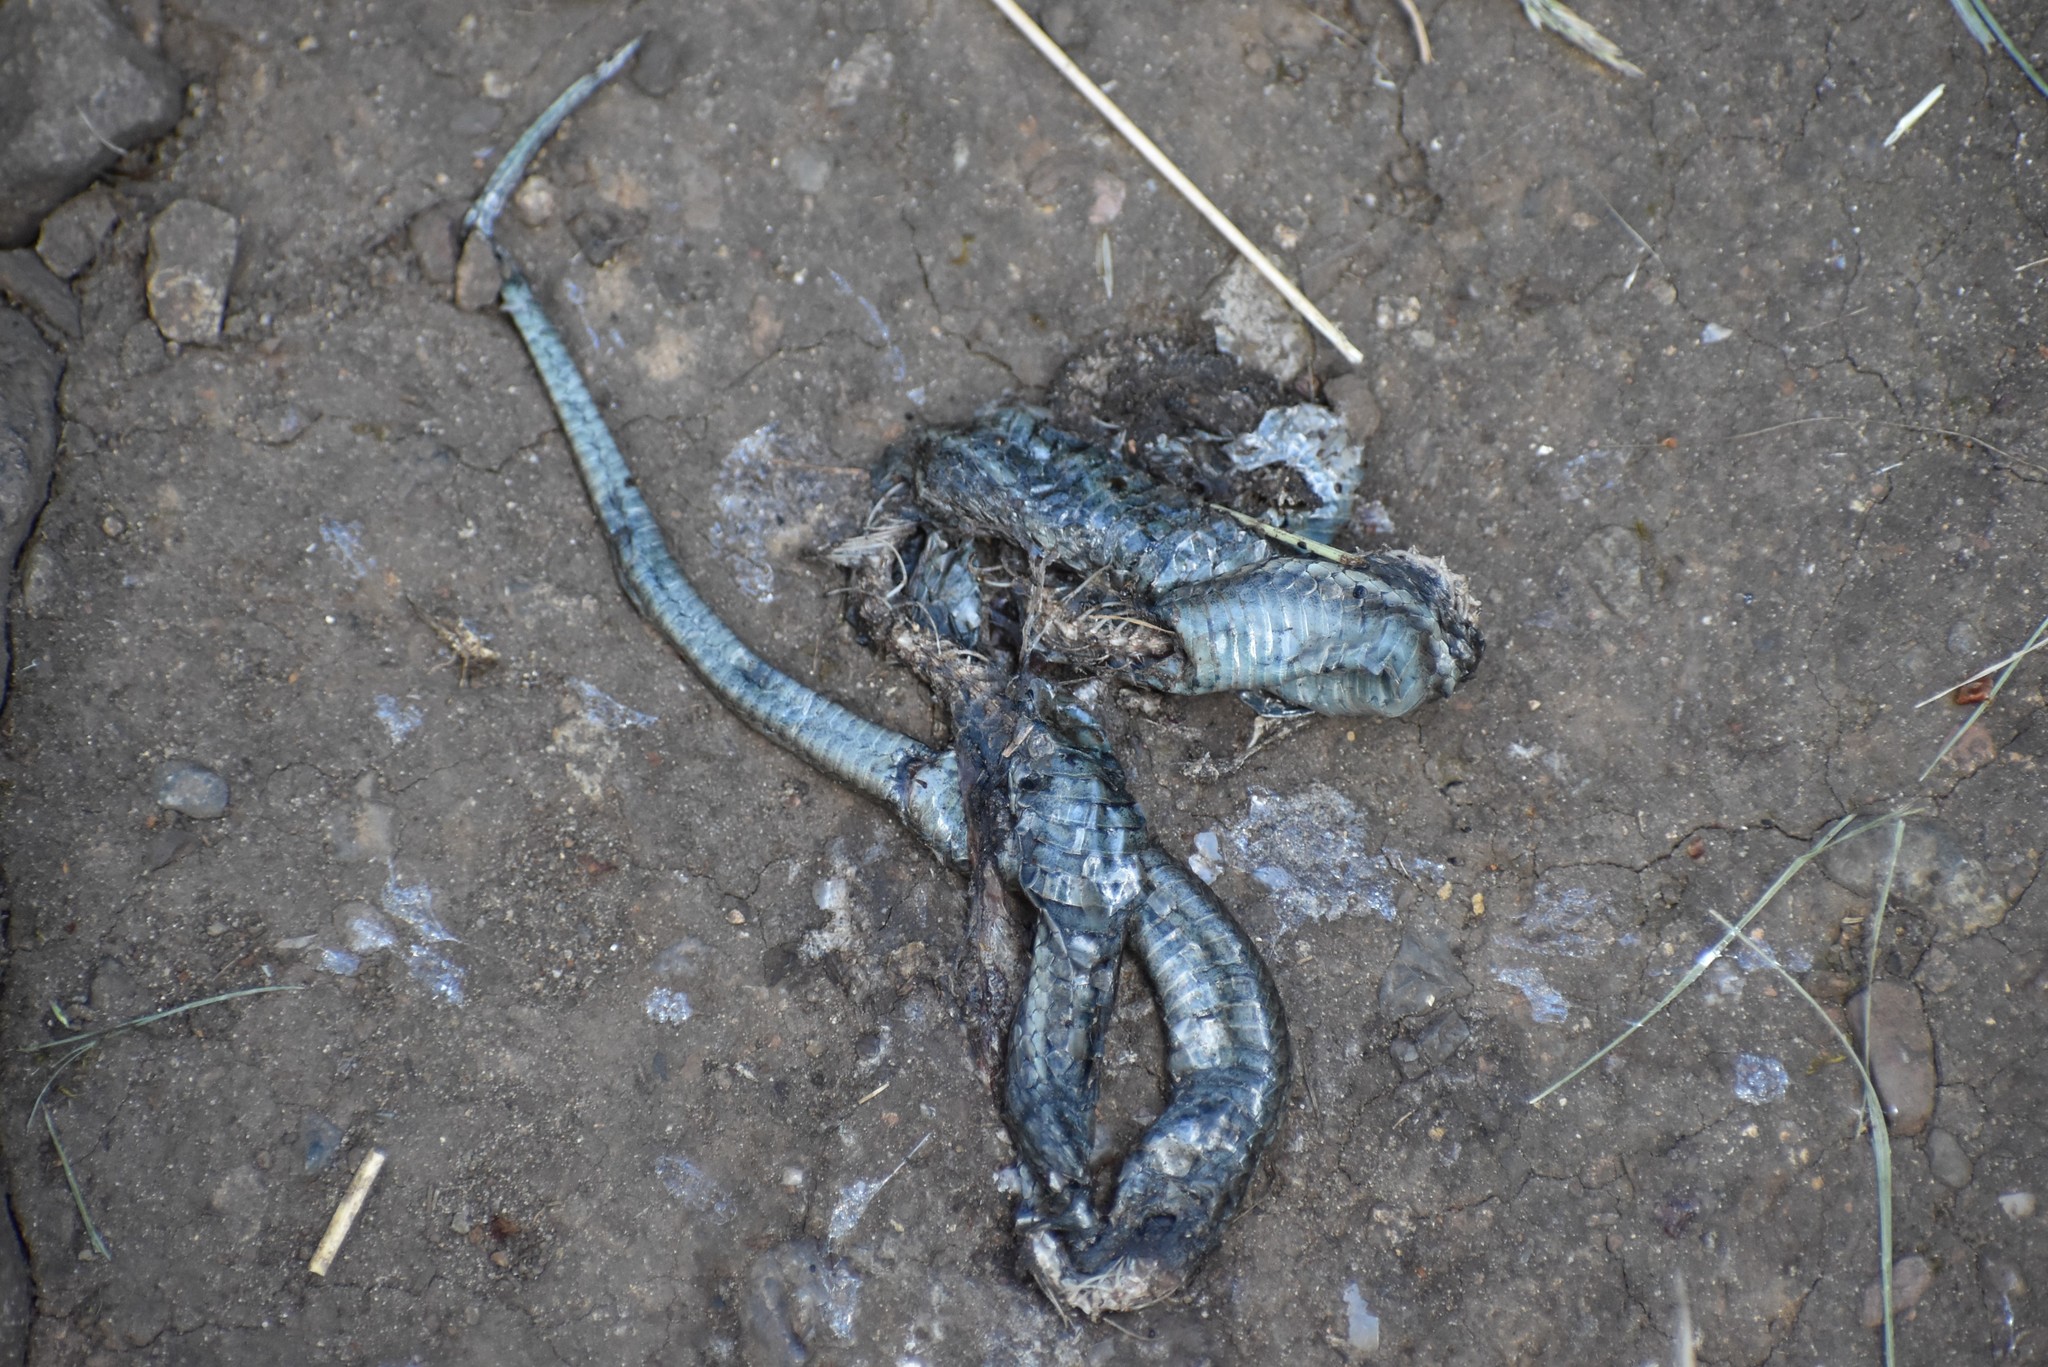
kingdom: Animalia
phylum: Chordata
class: Squamata
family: Colubridae
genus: Thamnophis
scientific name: Thamnophis
